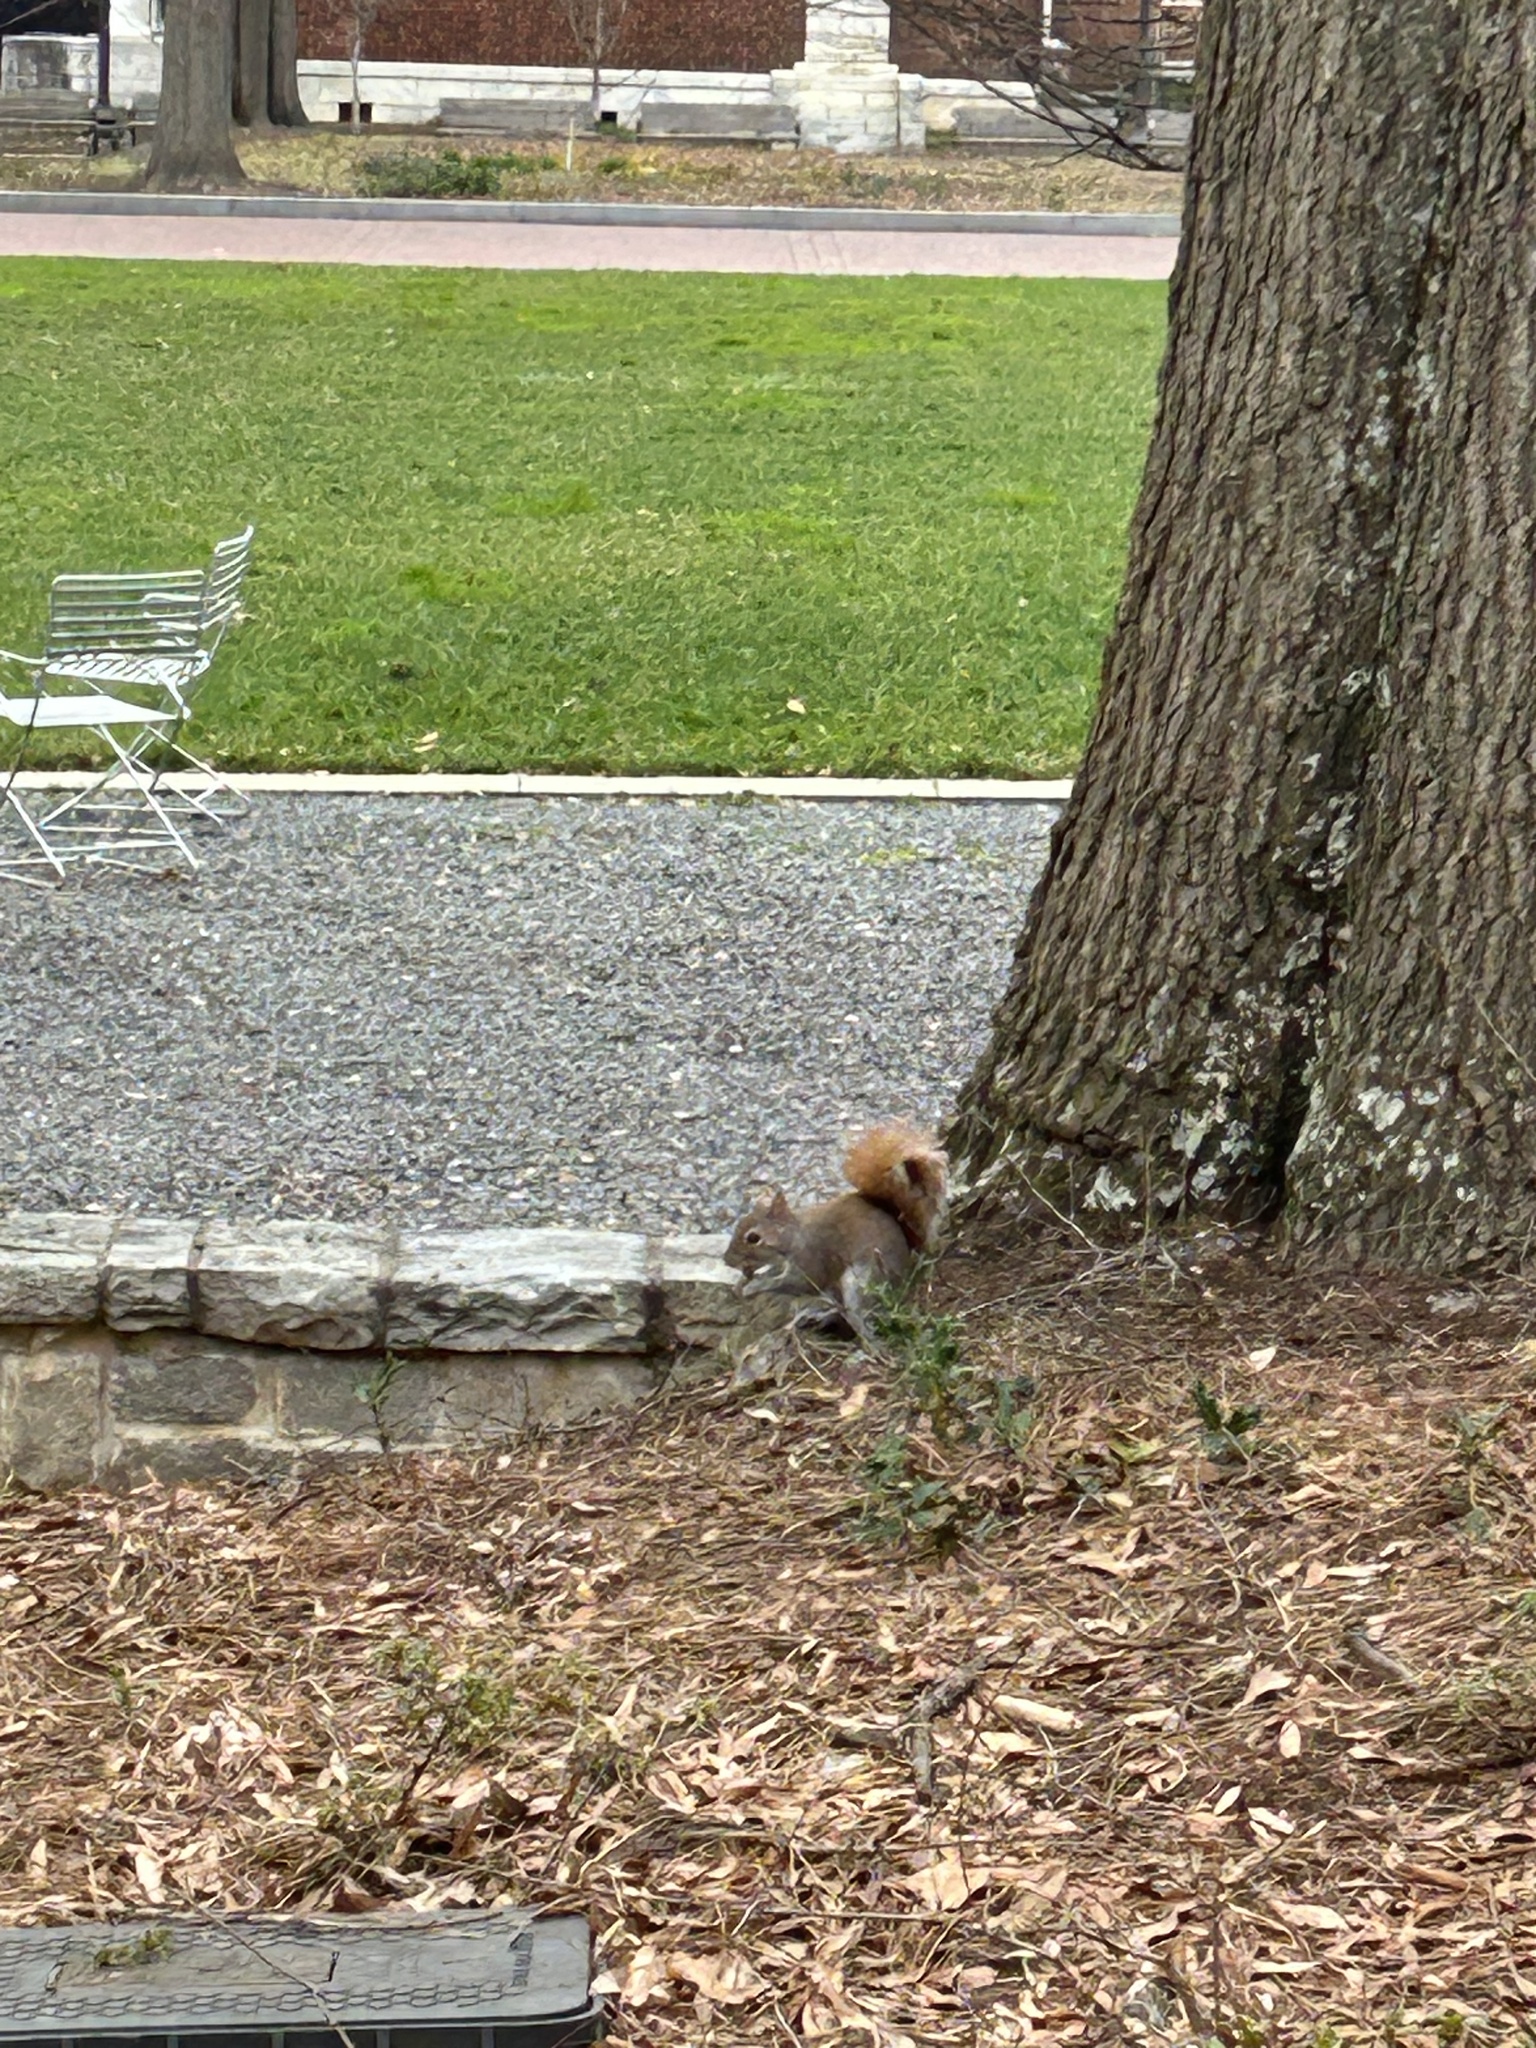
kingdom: Animalia
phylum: Chordata
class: Mammalia
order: Rodentia
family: Sciuridae
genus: Sciurus
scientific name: Sciurus carolinensis
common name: Eastern gray squirrel
